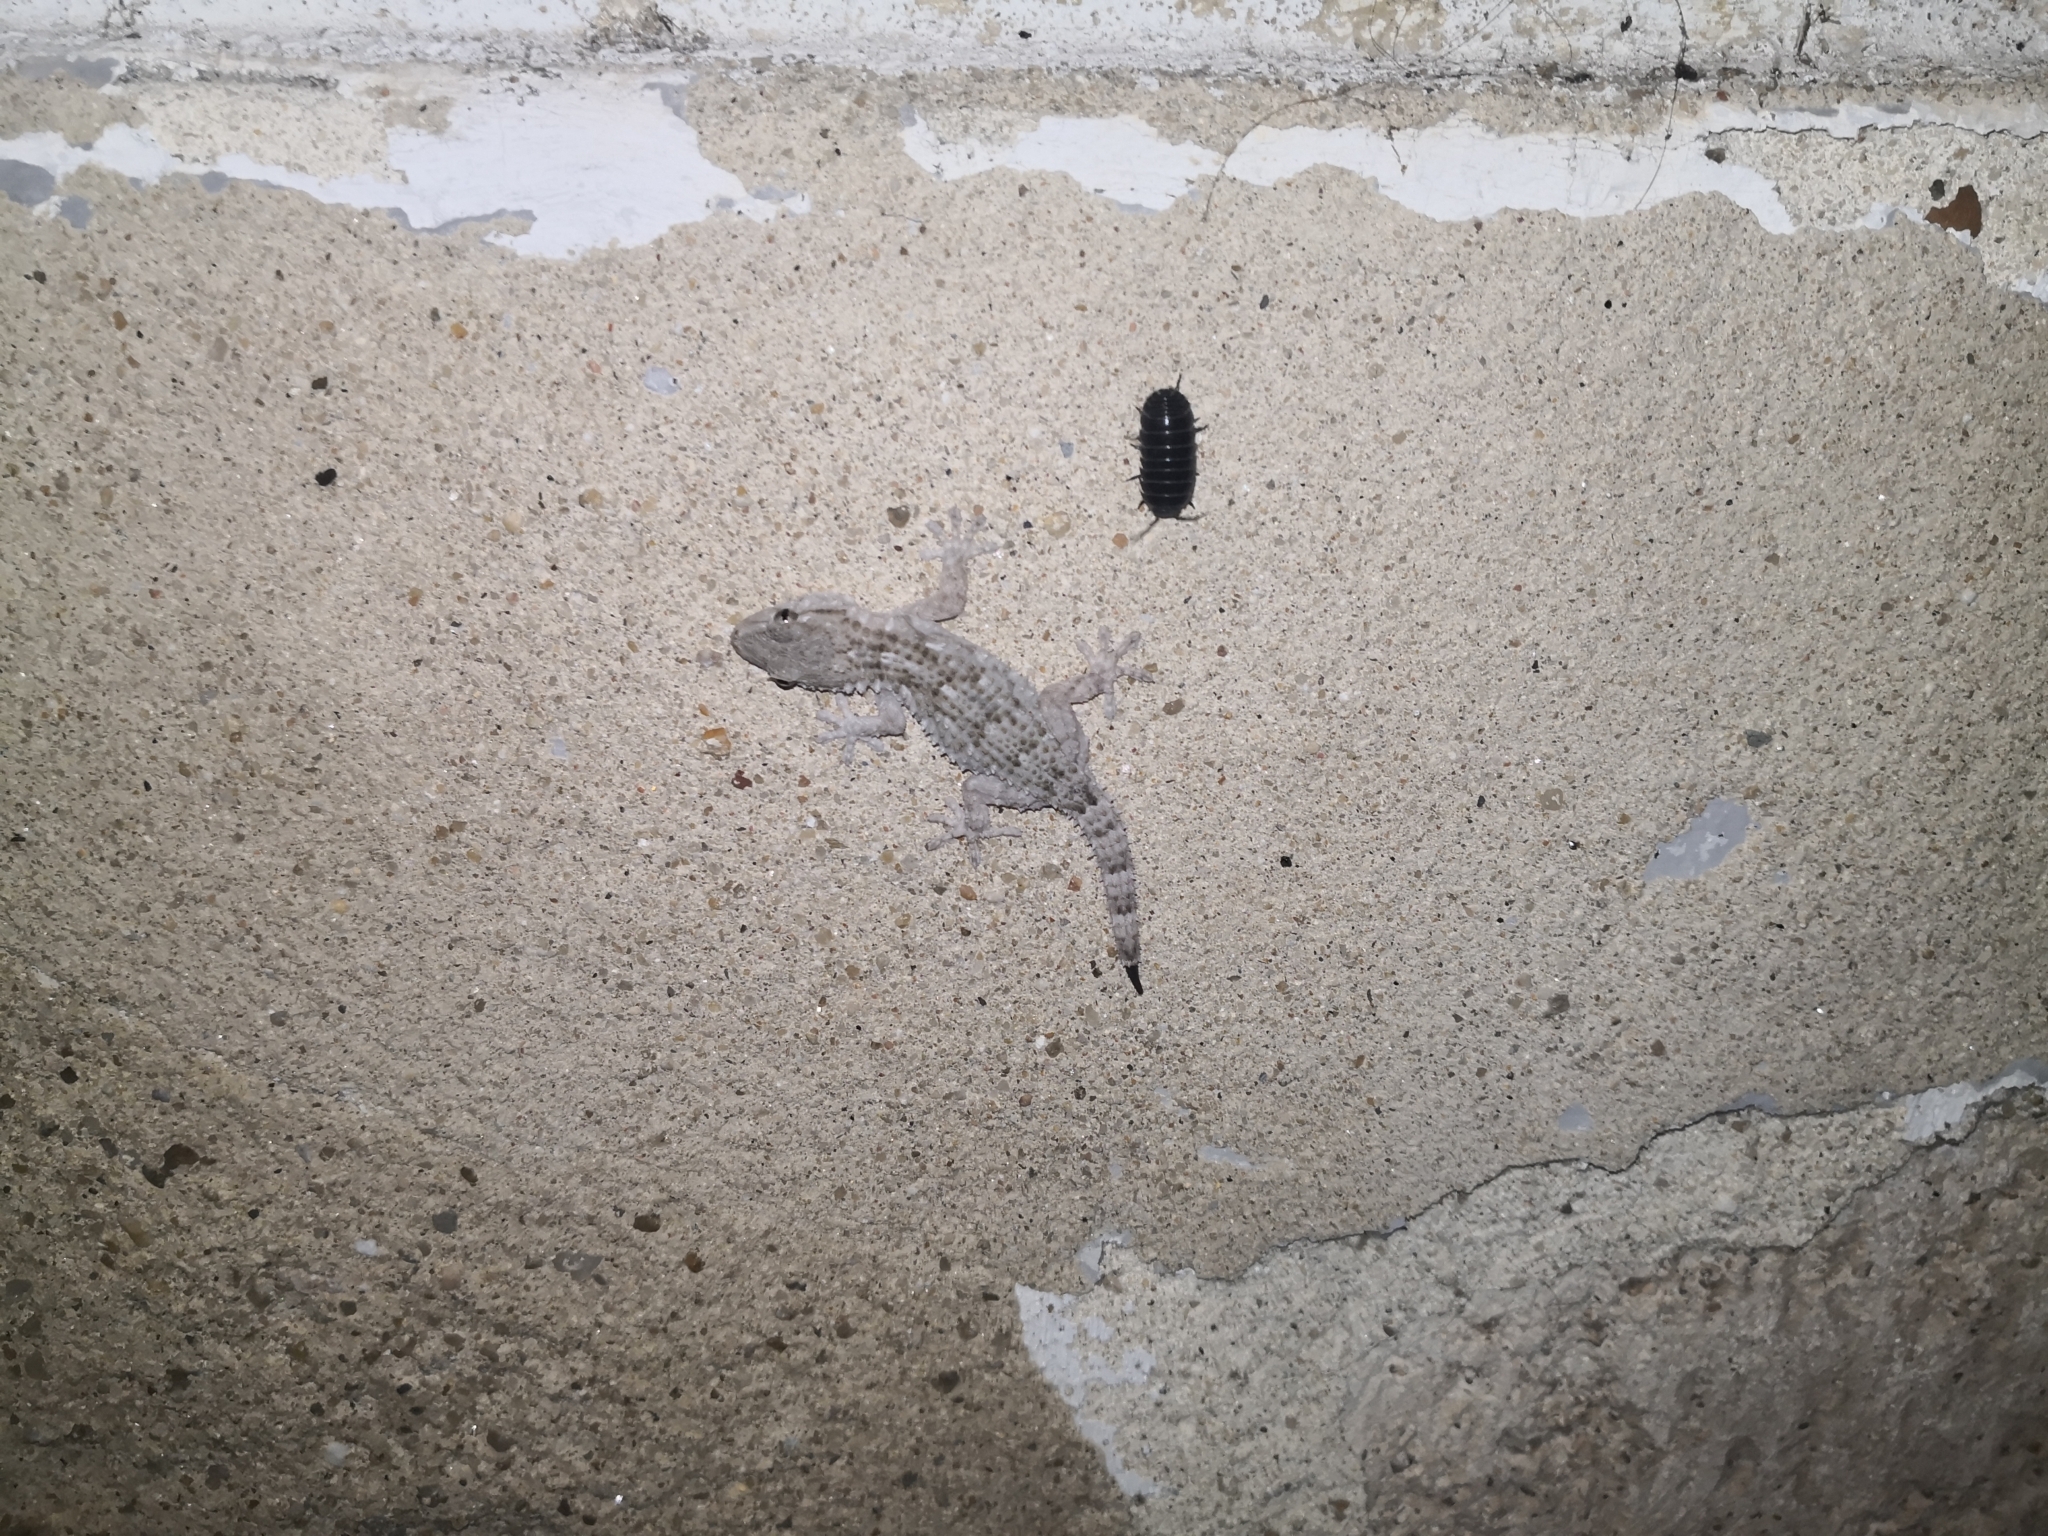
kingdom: Animalia
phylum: Chordata
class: Squamata
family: Phyllodactylidae
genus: Tarentola
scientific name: Tarentola mauritanica
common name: Moorish gecko
